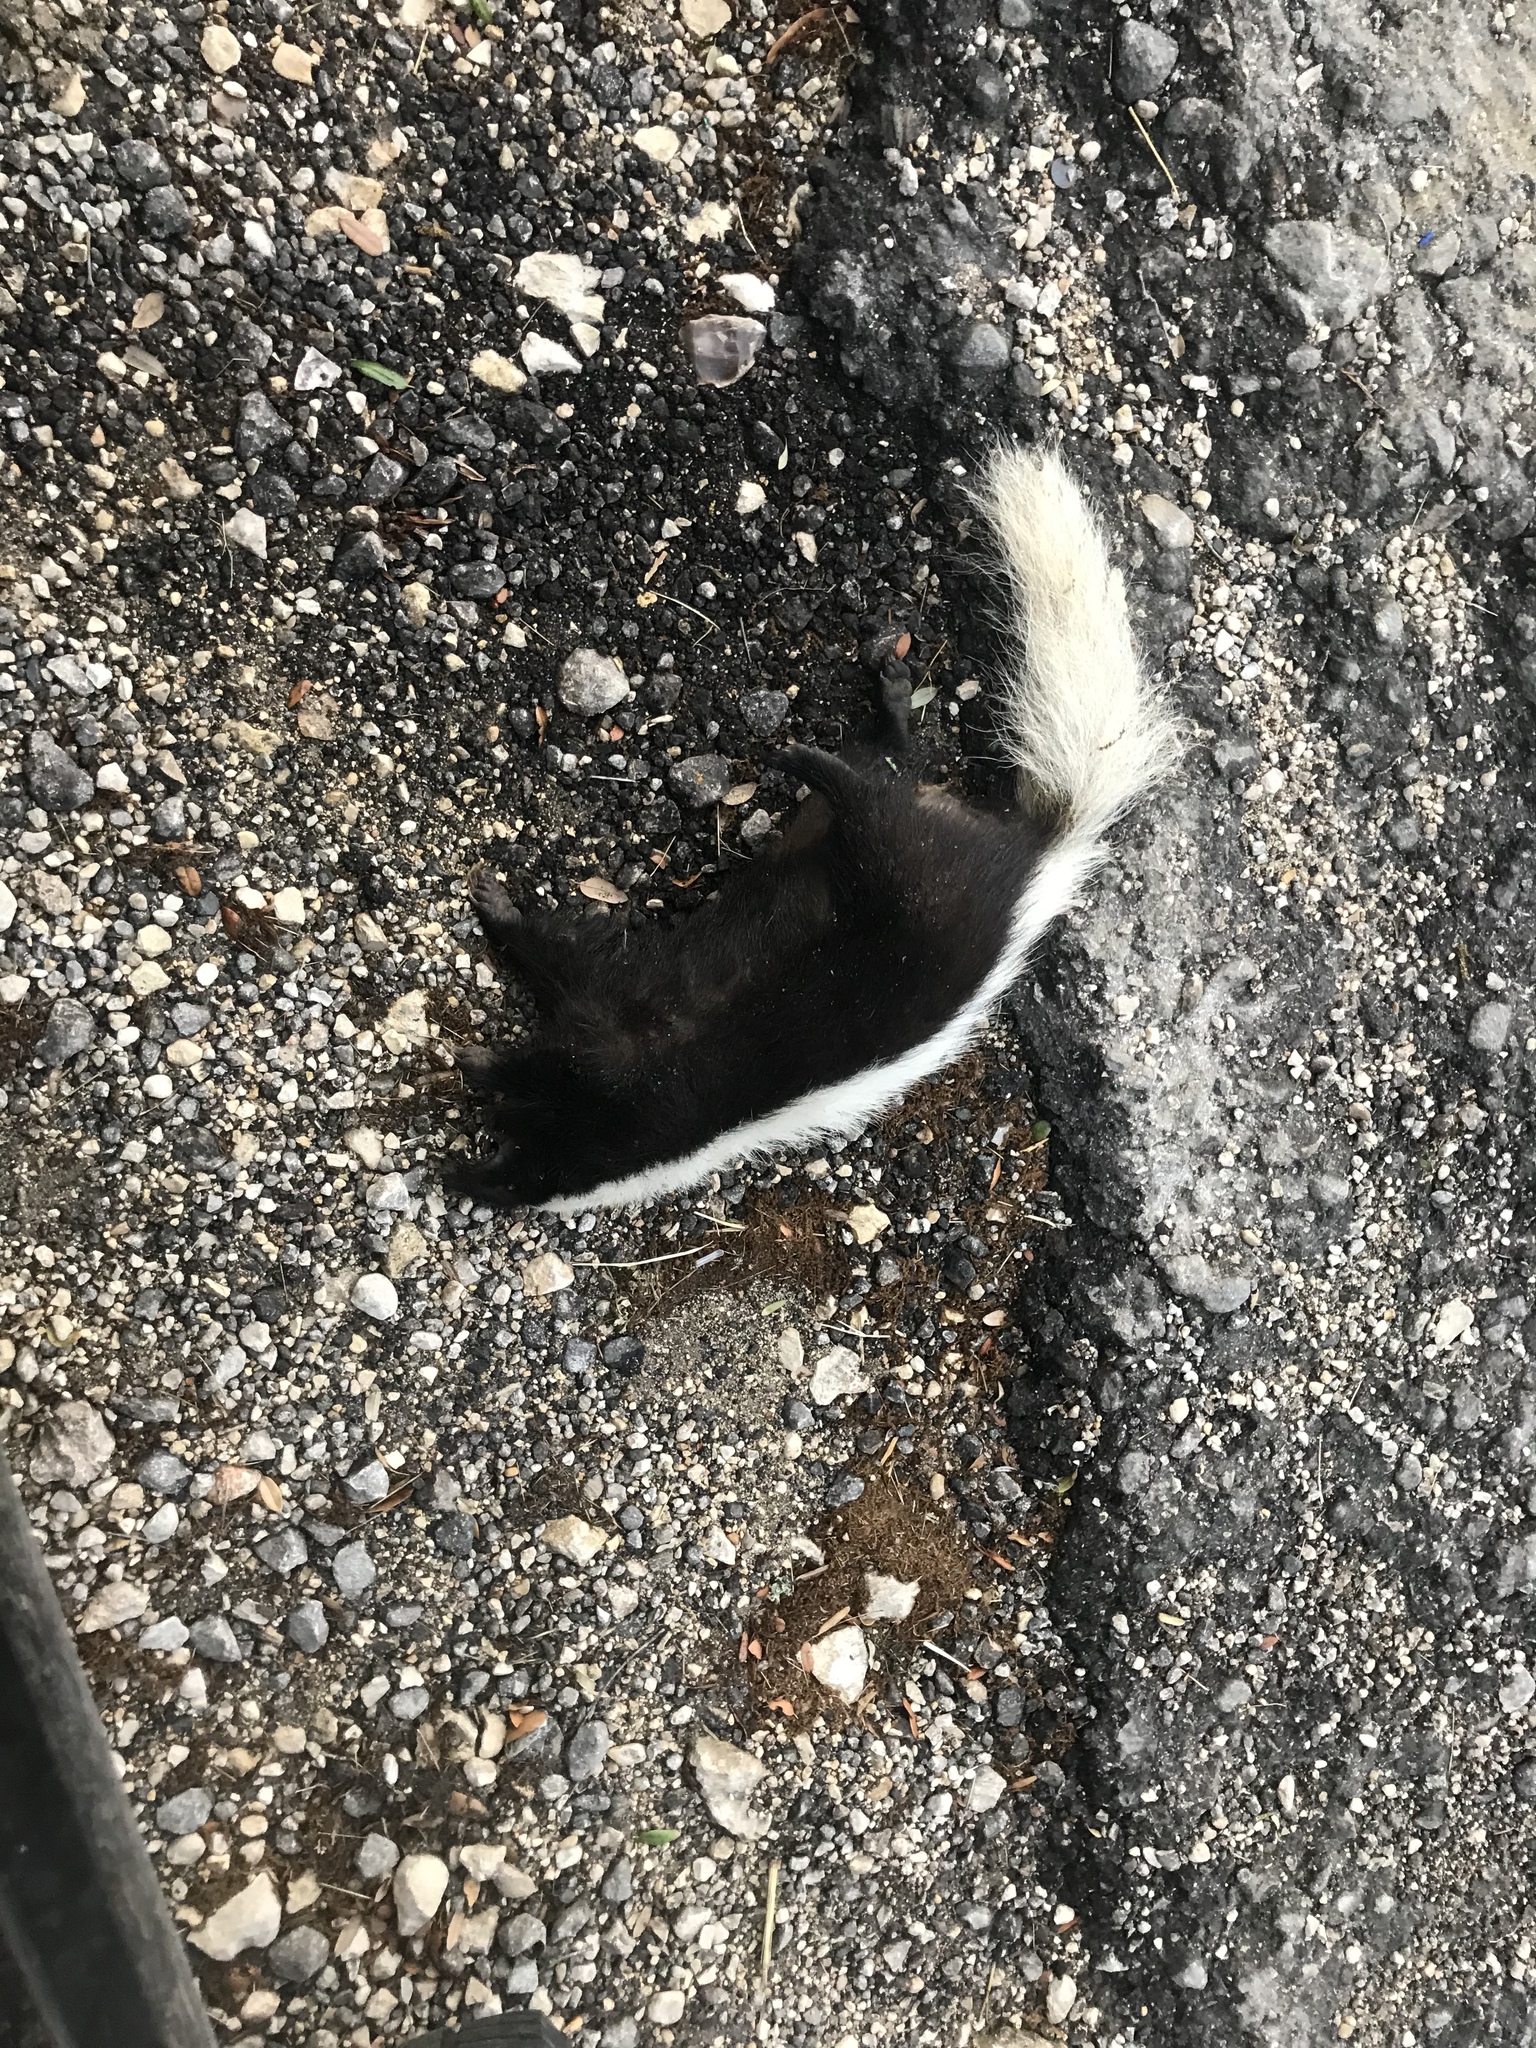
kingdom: Animalia
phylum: Chordata
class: Mammalia
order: Carnivora
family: Mephitidae
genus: Conepatus
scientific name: Conepatus leuconotus
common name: Eastern hog-nosed skunk
